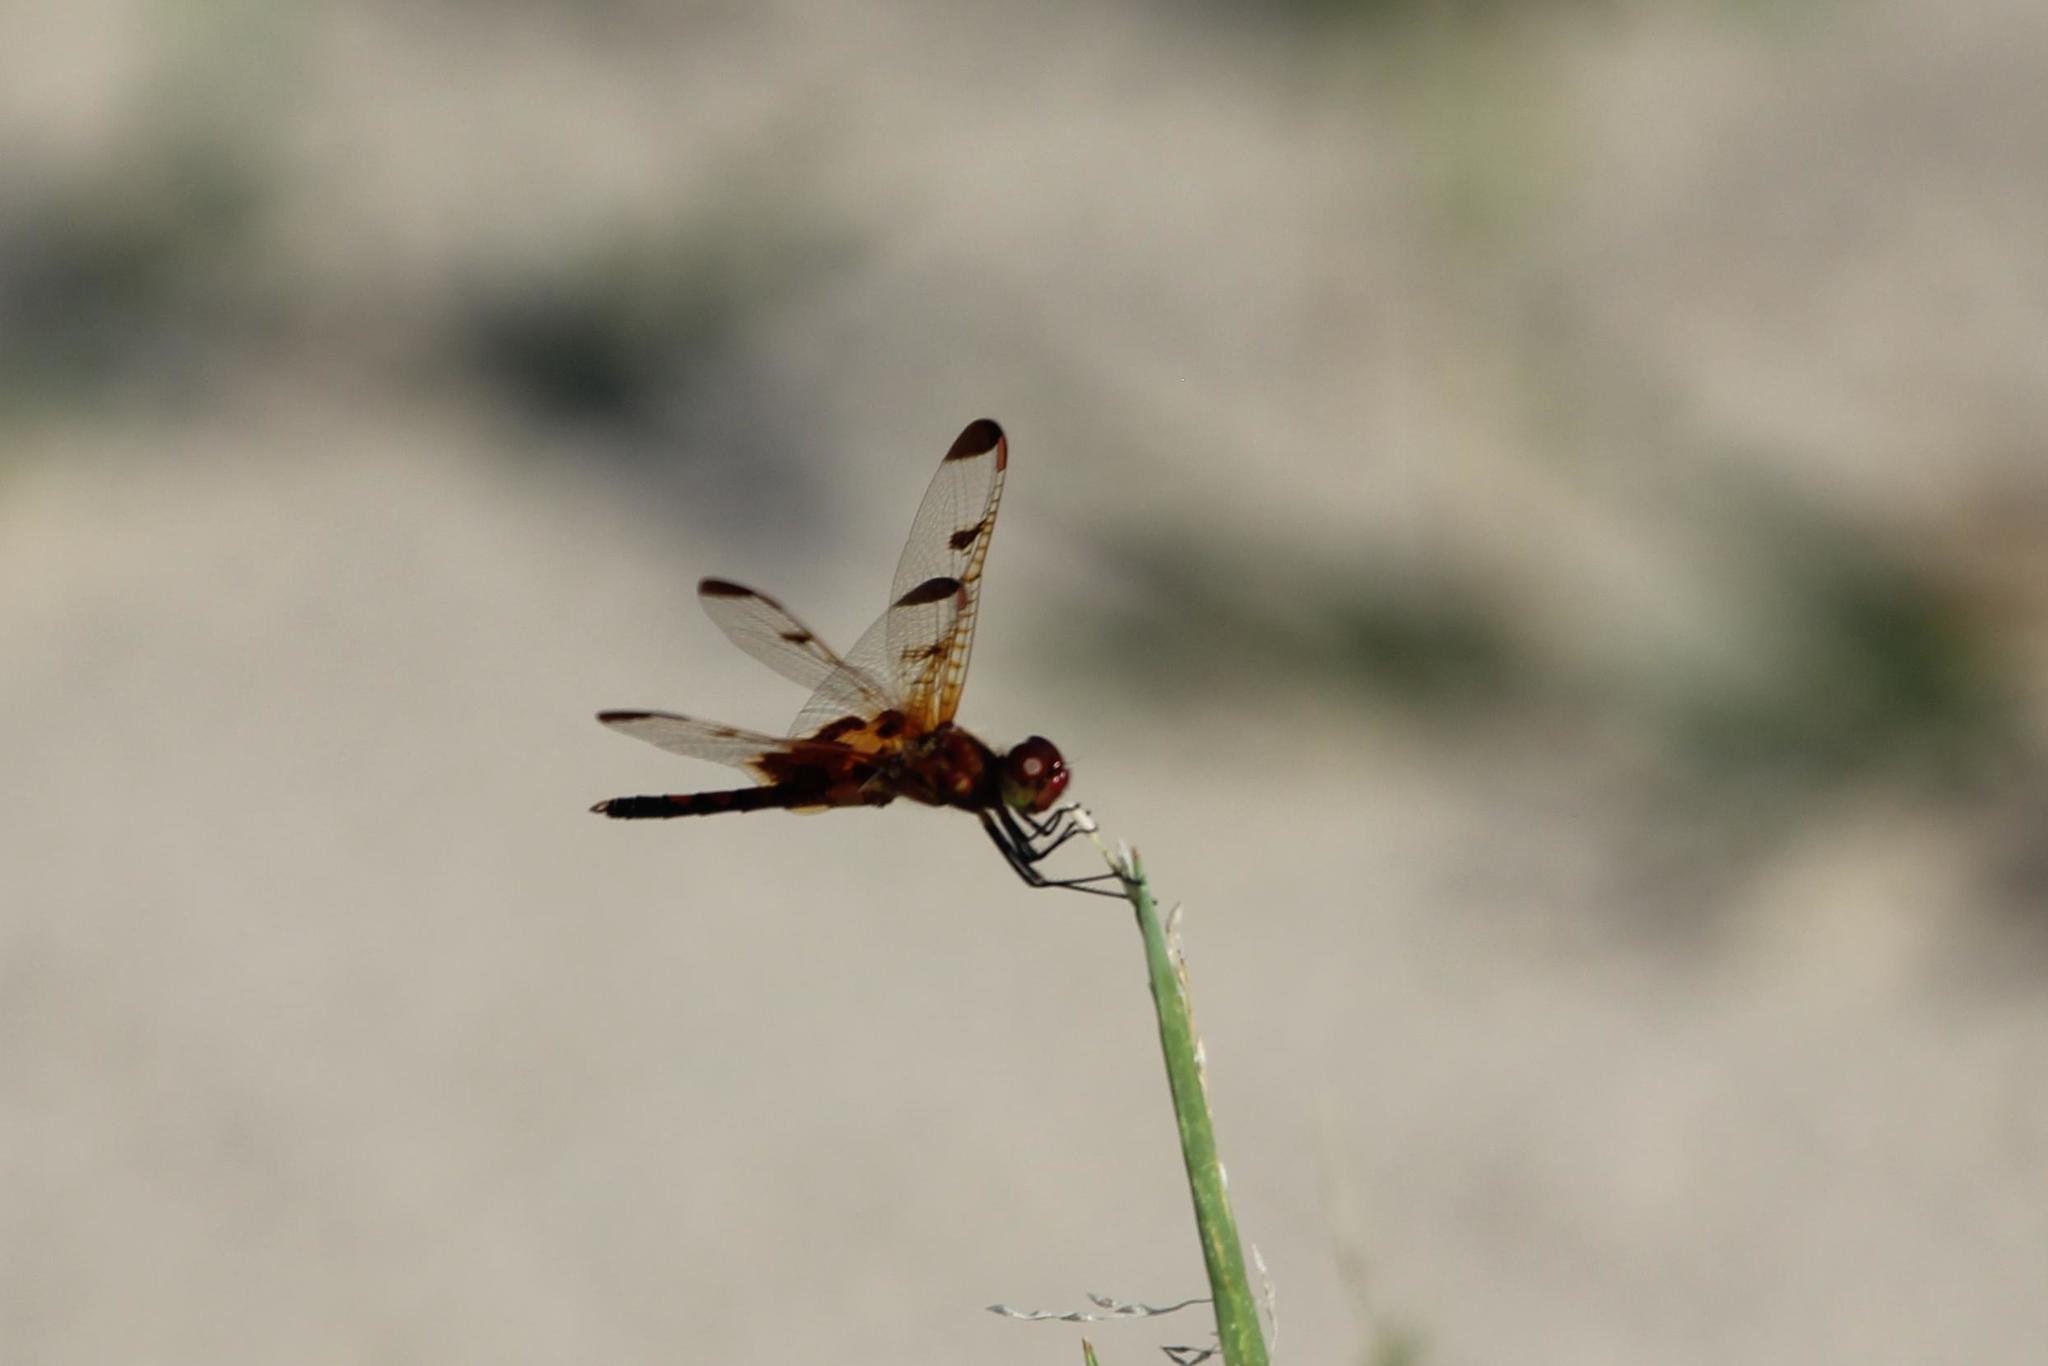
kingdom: Animalia
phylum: Arthropoda
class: Insecta
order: Odonata
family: Libellulidae
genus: Celithemis
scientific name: Celithemis elisa
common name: Calico pennant
